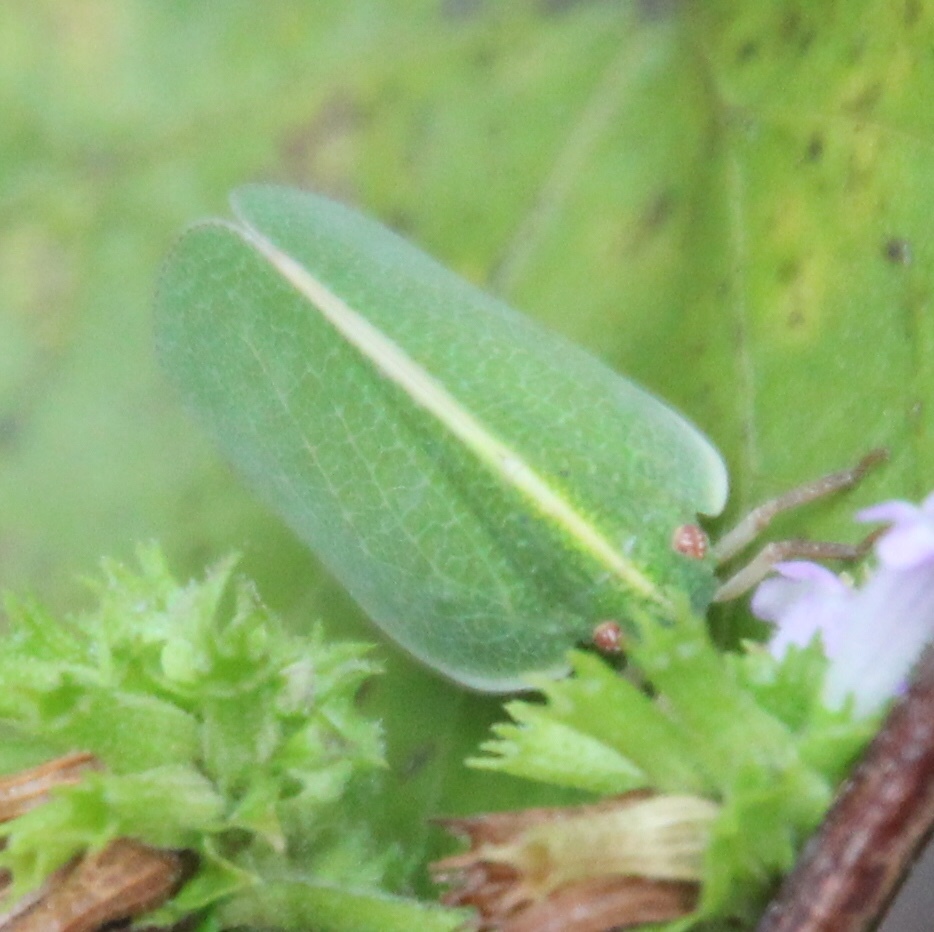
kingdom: Animalia
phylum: Arthropoda
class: Insecta
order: Hemiptera
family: Acanaloniidae
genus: Acanalonia
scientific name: Acanalonia servillei
